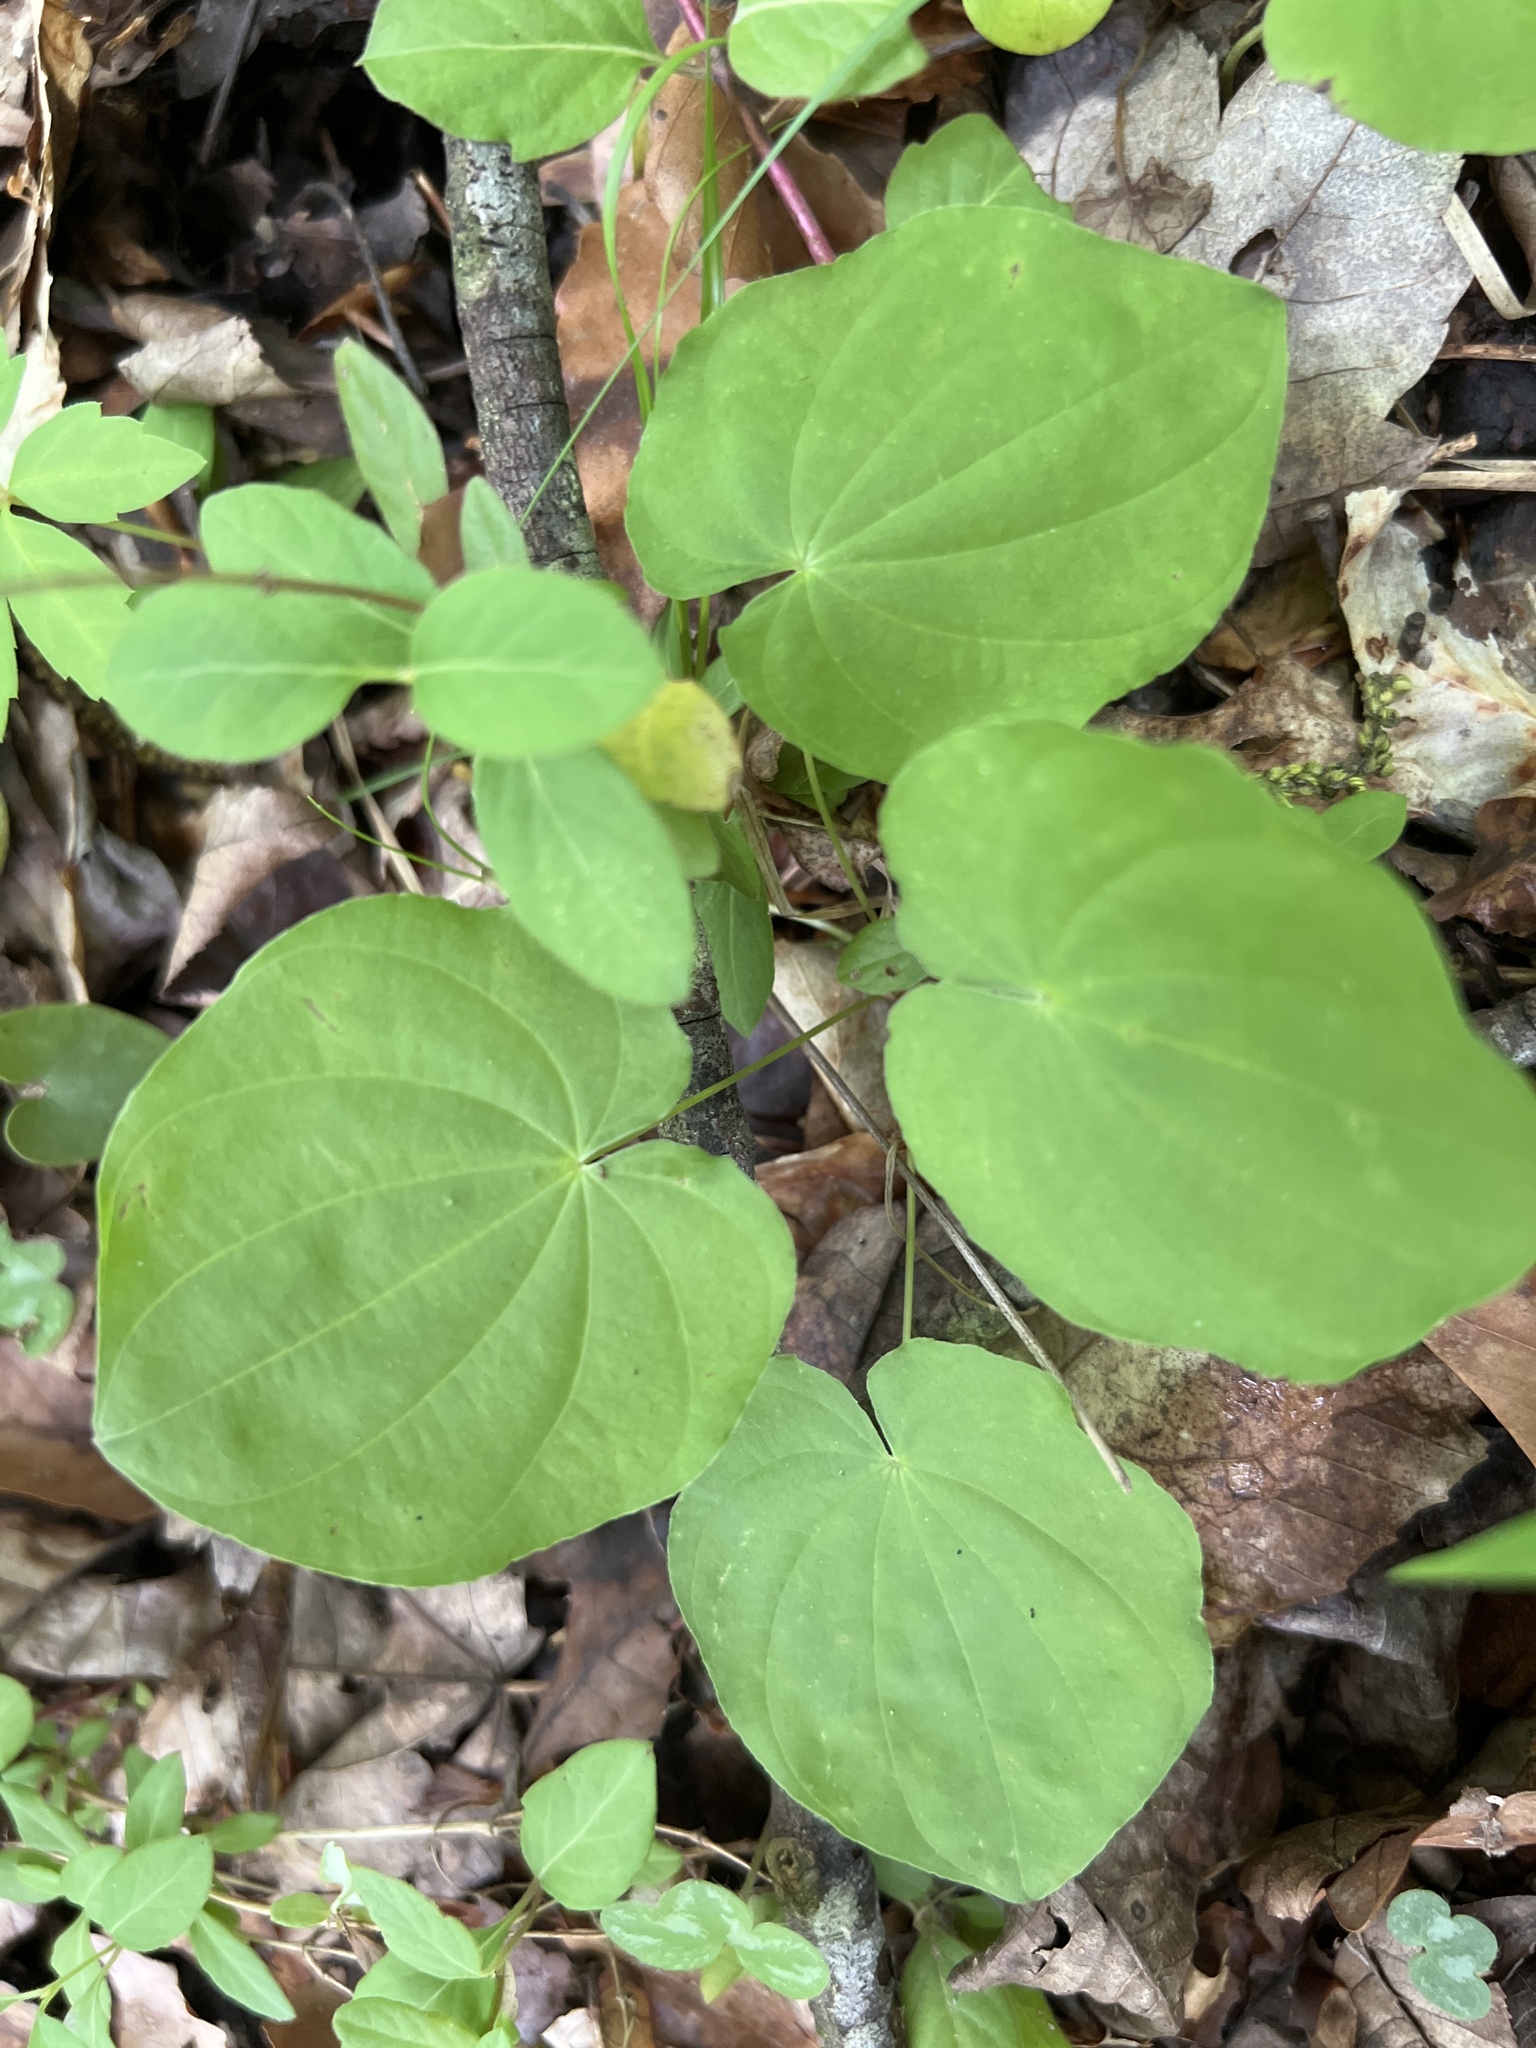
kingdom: Plantae
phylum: Tracheophyta
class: Liliopsida
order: Dioscoreales
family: Dioscoreaceae
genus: Dioscorea
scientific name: Dioscorea villosa
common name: Wild yam
